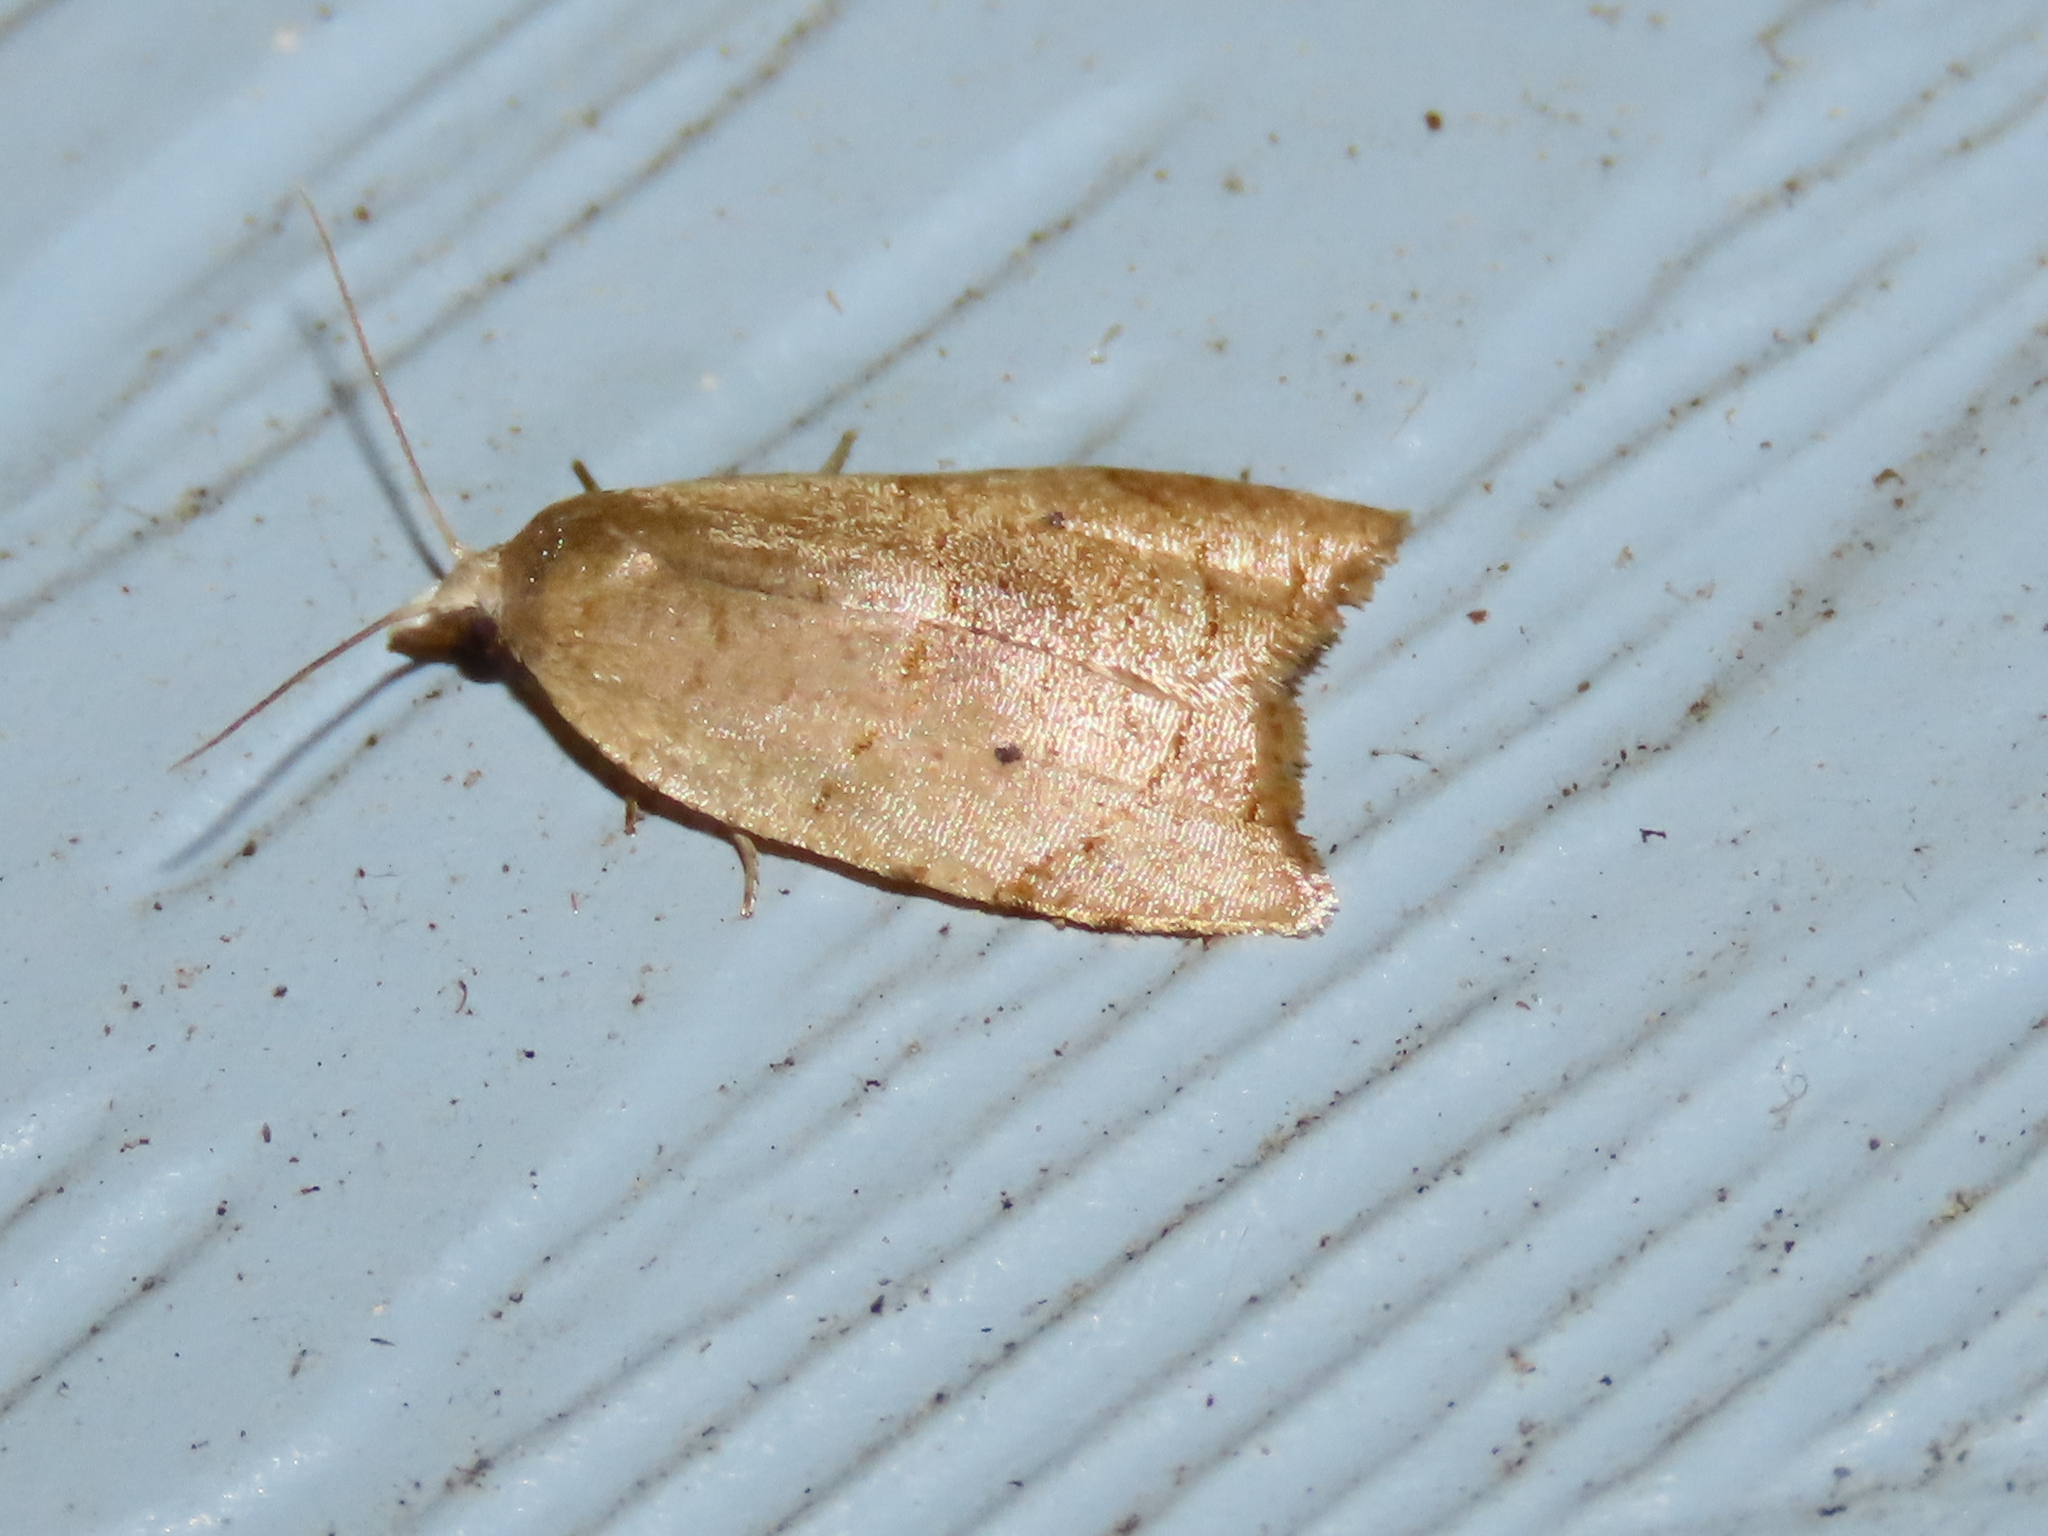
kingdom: Animalia
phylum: Arthropoda
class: Insecta
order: Lepidoptera
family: Tortricidae
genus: Coelostathma
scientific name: Coelostathma discopunctana
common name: Batman moth
